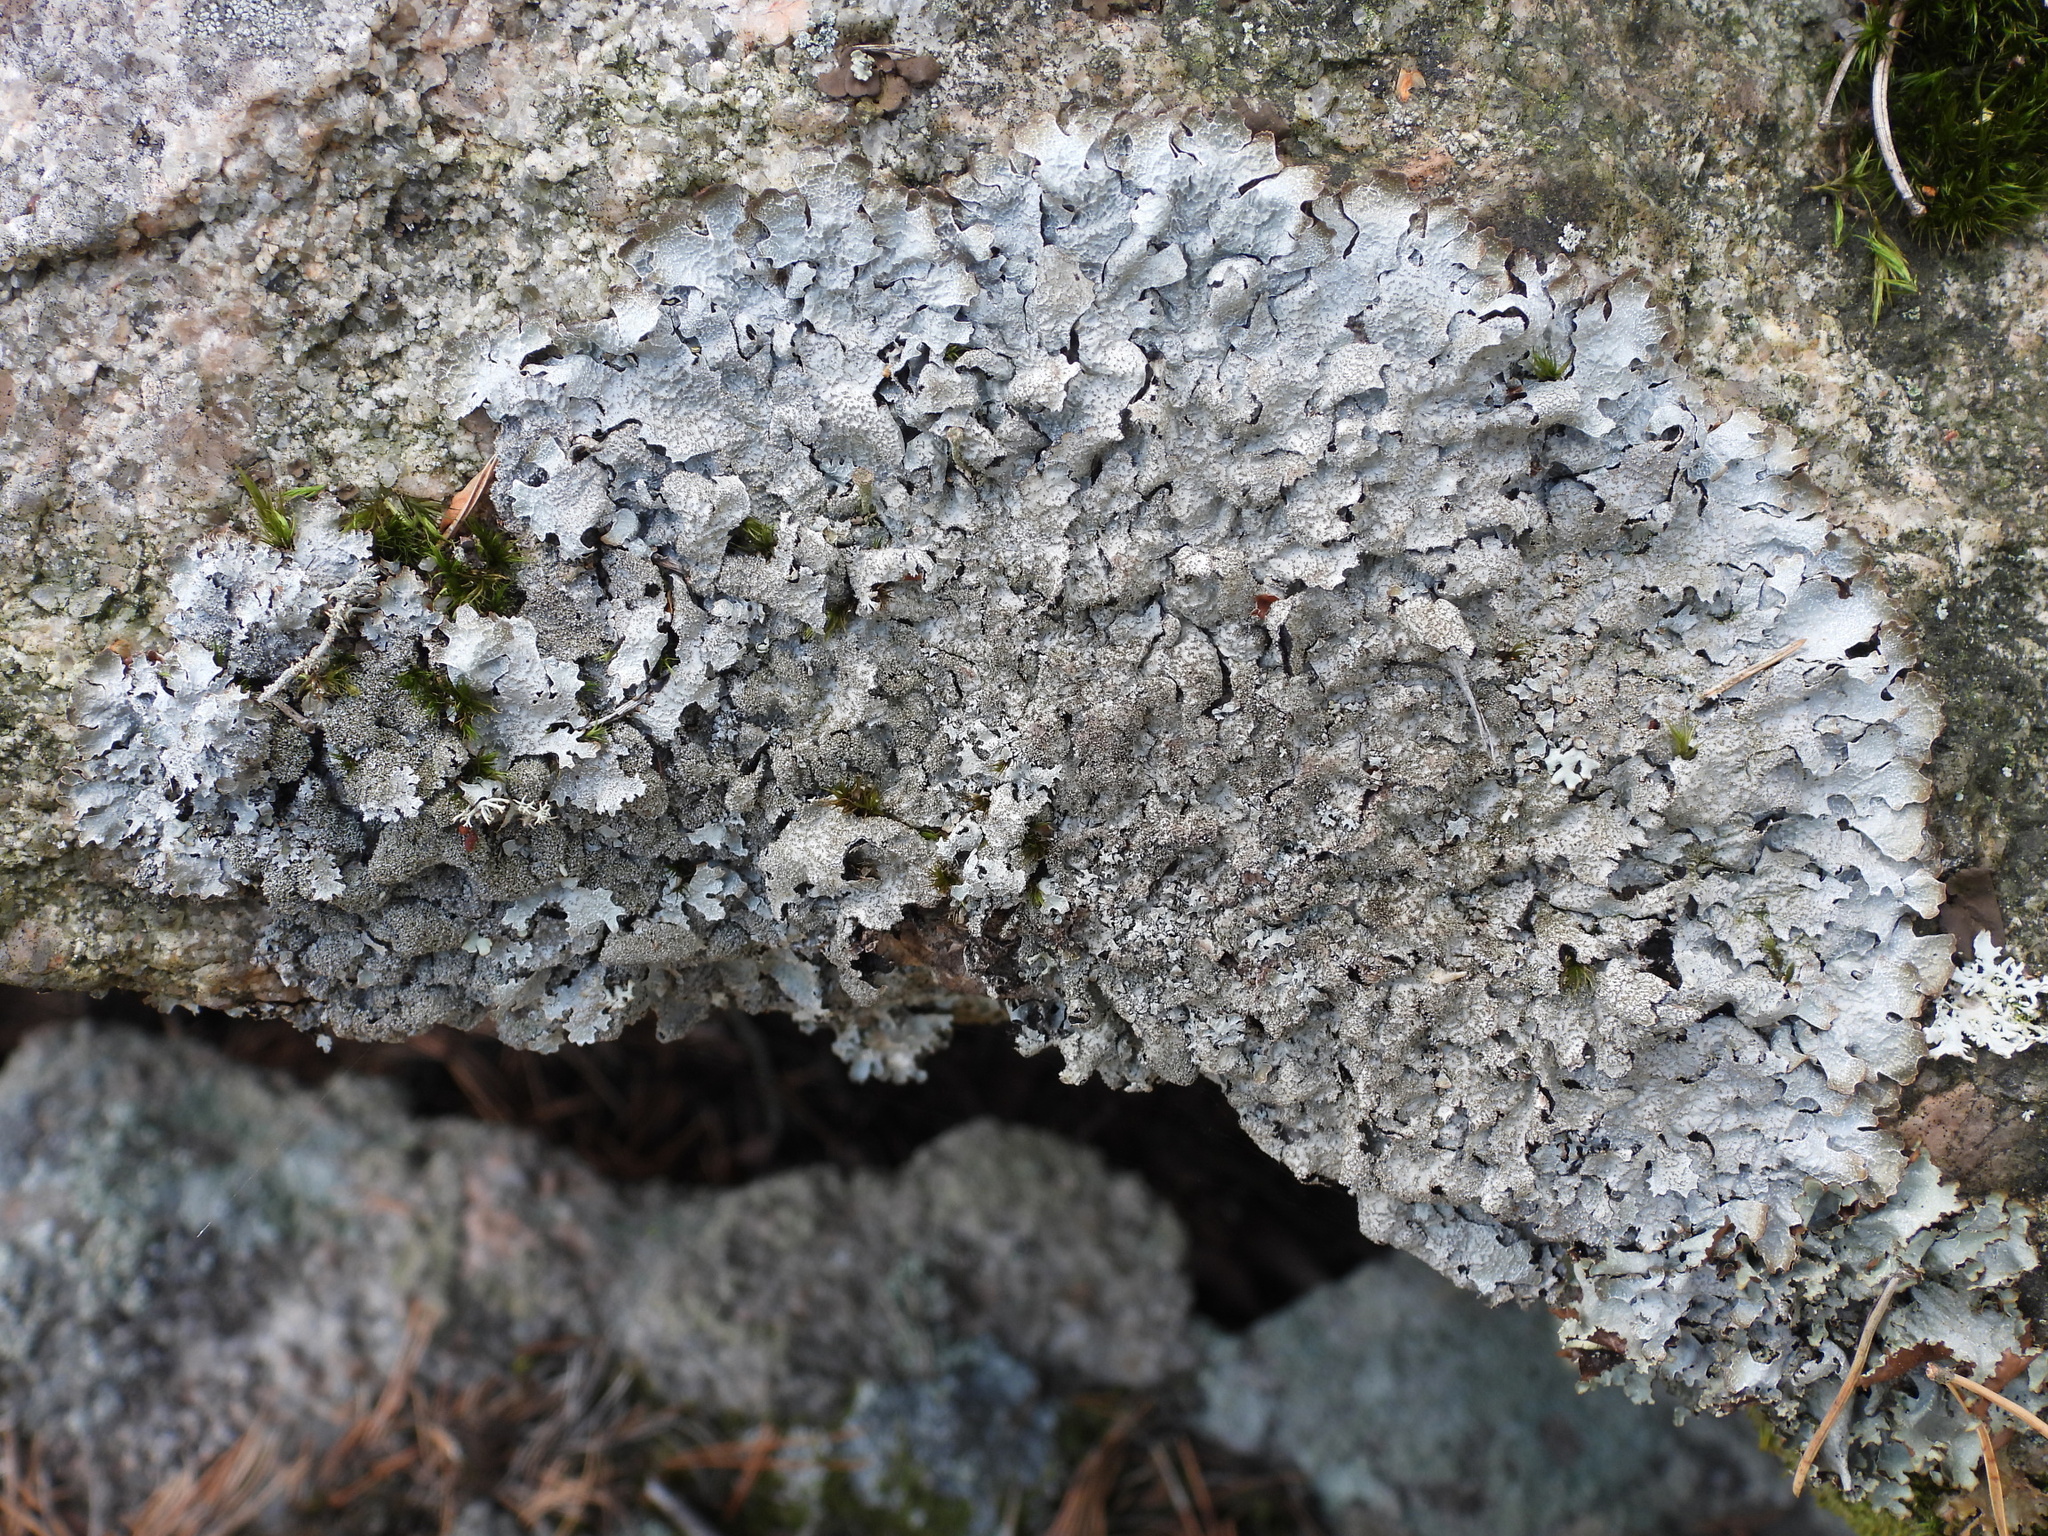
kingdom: Fungi
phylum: Ascomycota
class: Lecanoromycetes
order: Lecanorales
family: Parmeliaceae
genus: Parmelia
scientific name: Parmelia saxatilis
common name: Salted shield lichen
